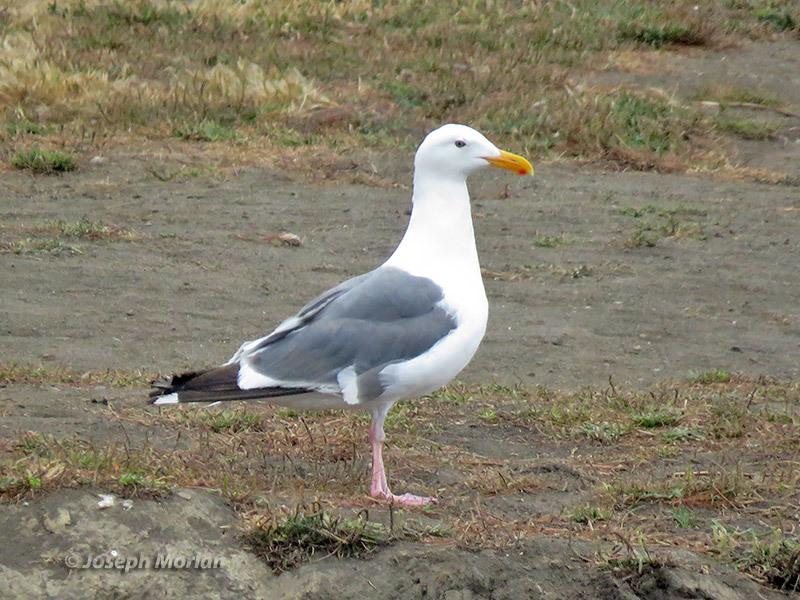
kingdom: Animalia
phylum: Chordata
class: Aves
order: Charadriiformes
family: Laridae
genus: Larus
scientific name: Larus occidentalis
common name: Western gull
